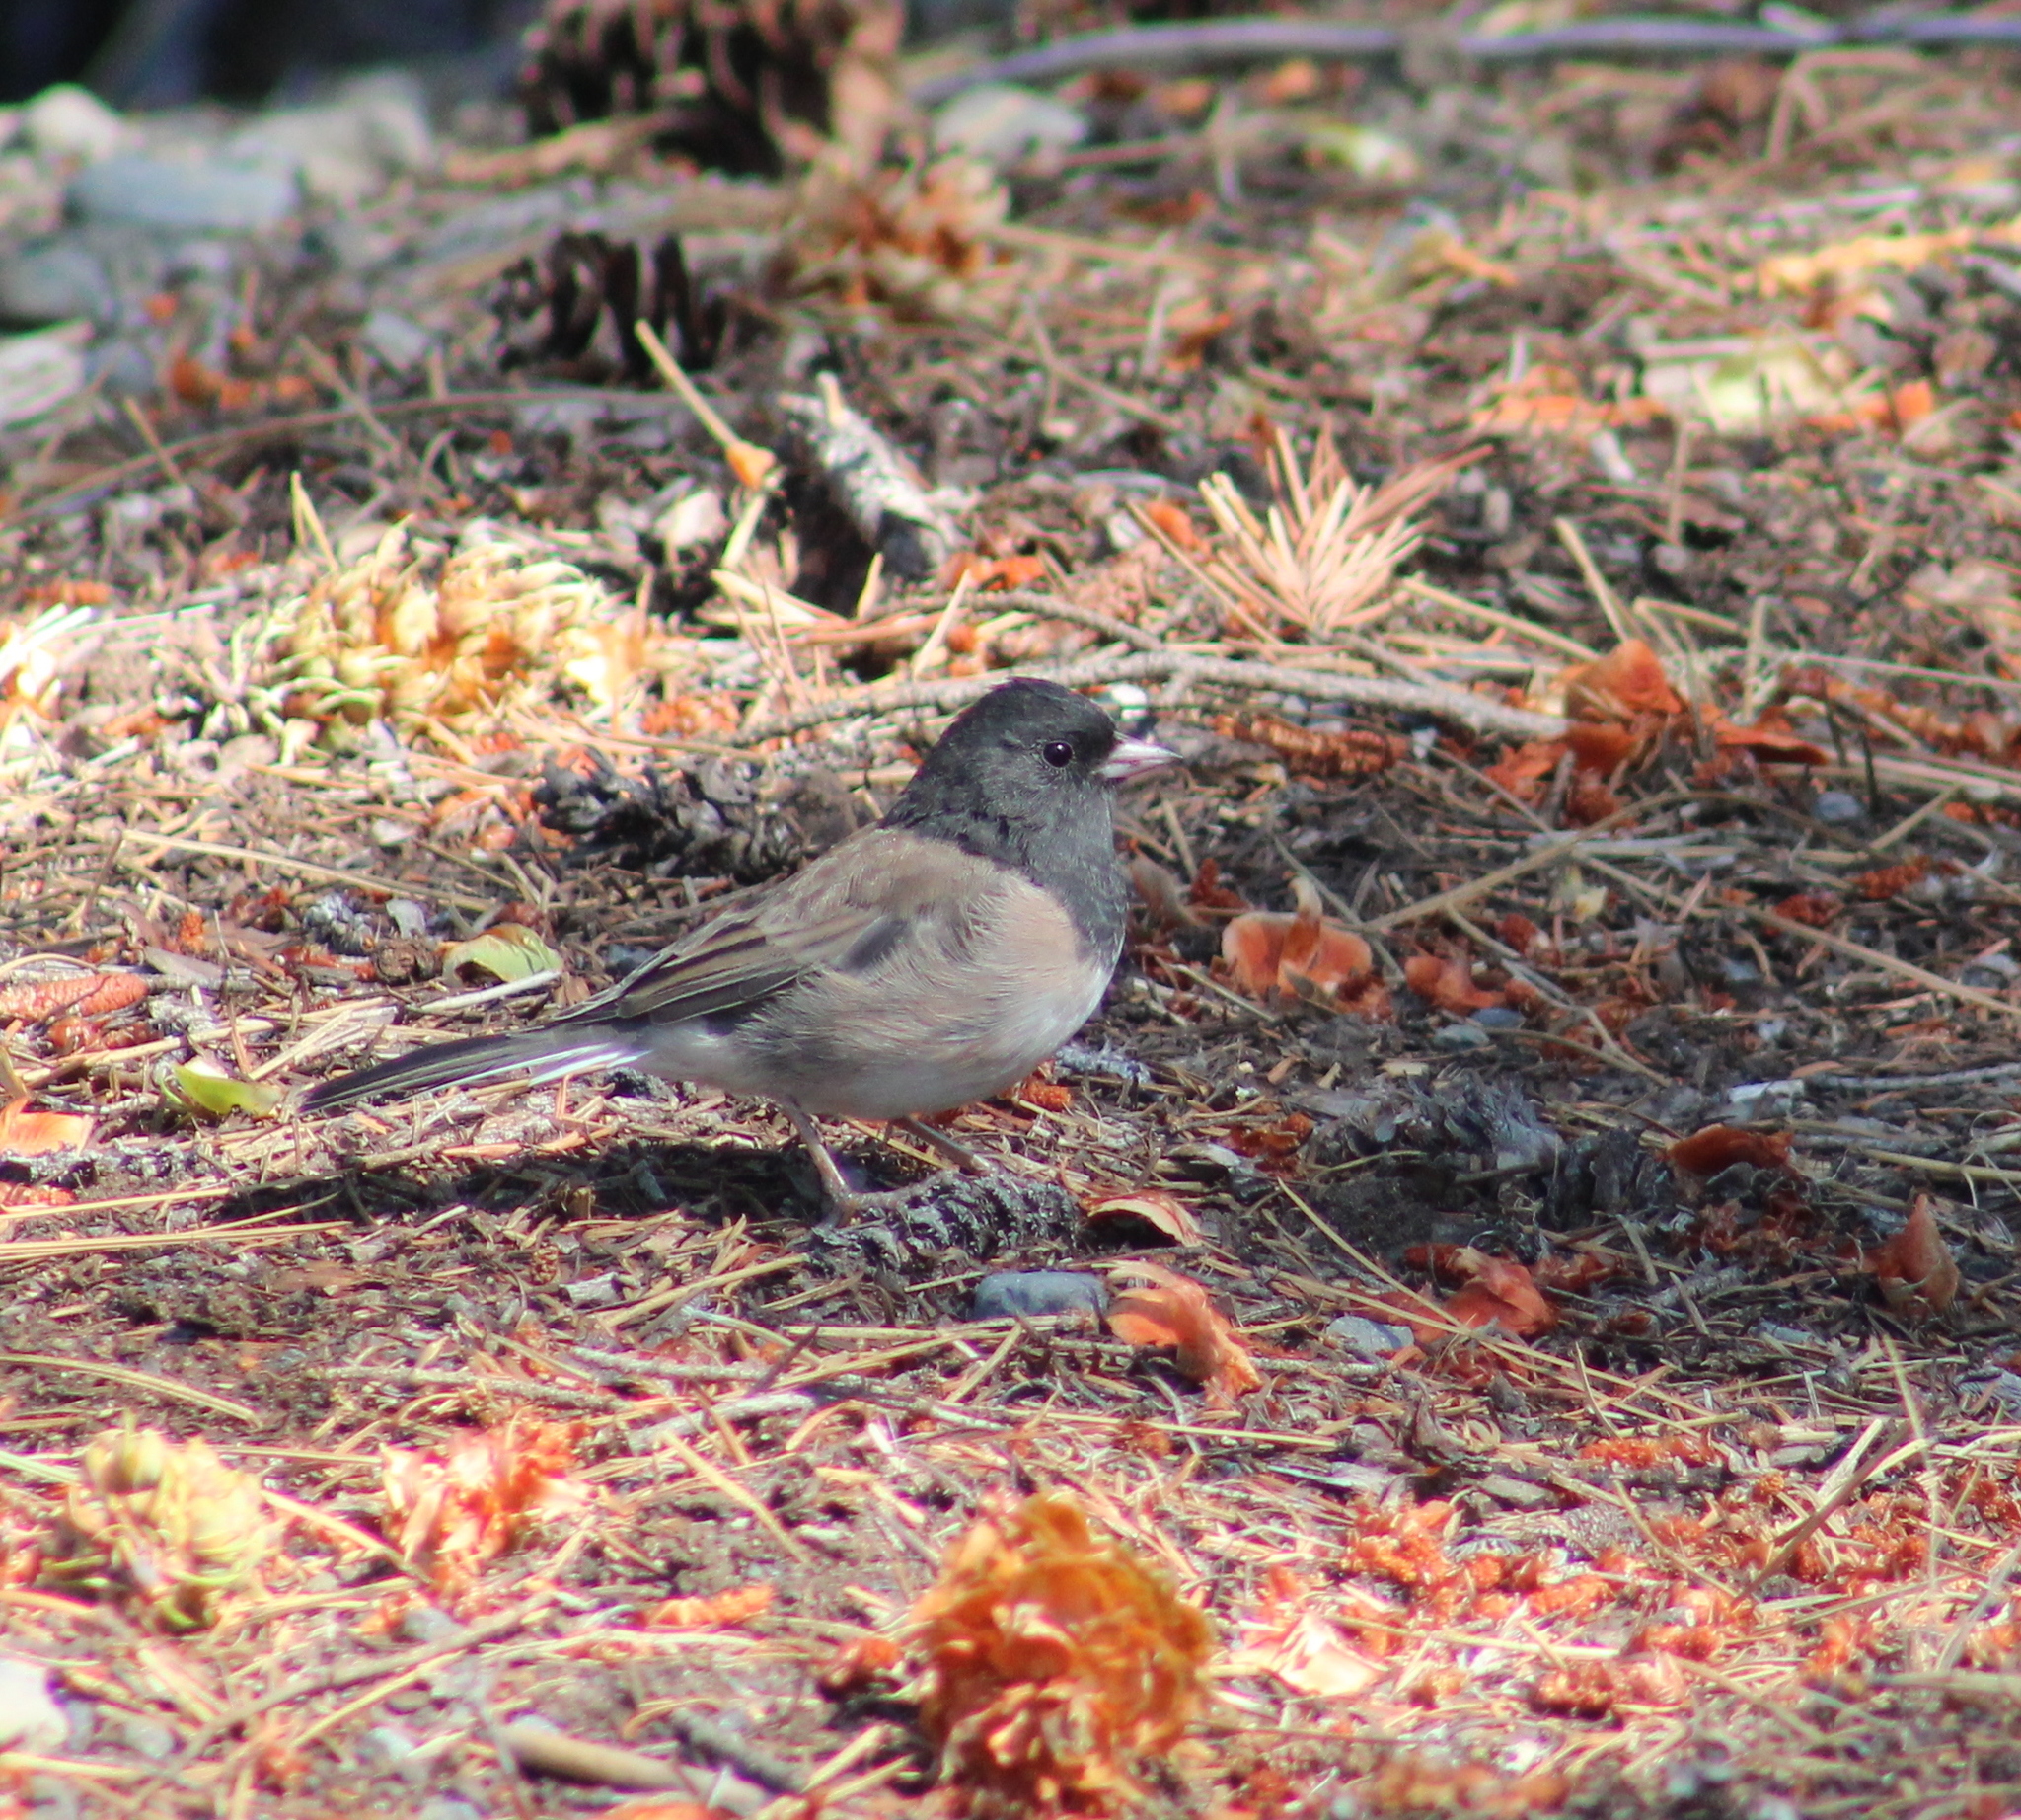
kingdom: Animalia
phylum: Chordata
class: Aves
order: Passeriformes
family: Passerellidae
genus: Junco
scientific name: Junco hyemalis
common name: Dark-eyed junco
